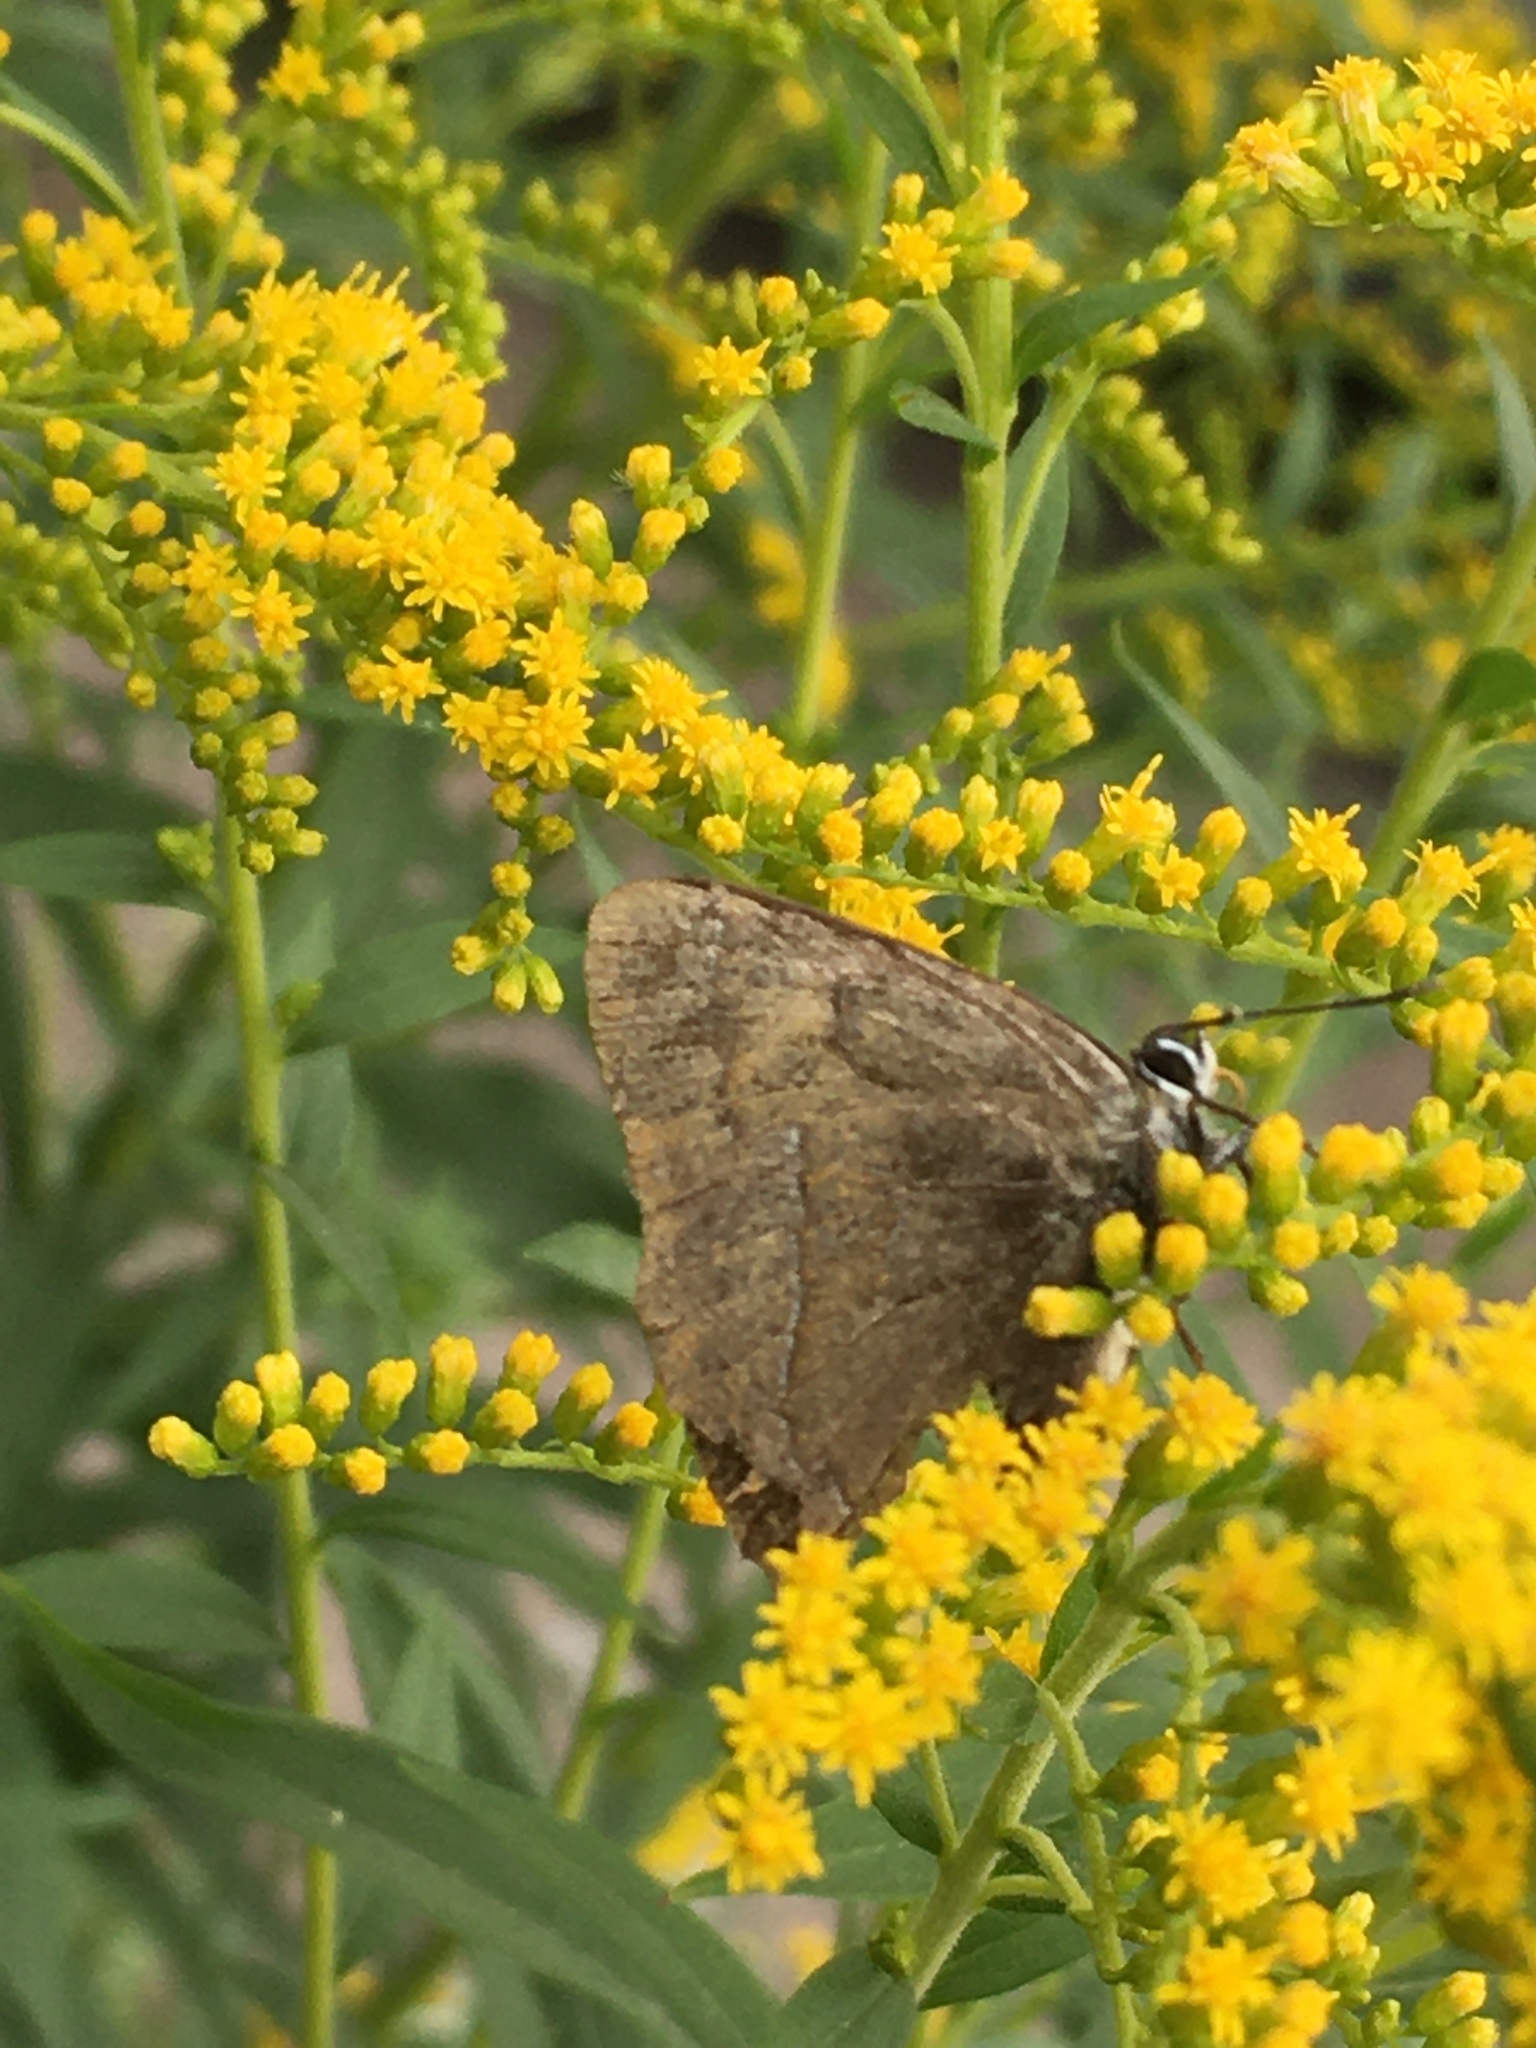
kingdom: Animalia
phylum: Arthropoda
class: Insecta
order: Lepidoptera
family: Lycaenidae
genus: Thecla
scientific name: Thecla betulae
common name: Brown hairstreak
